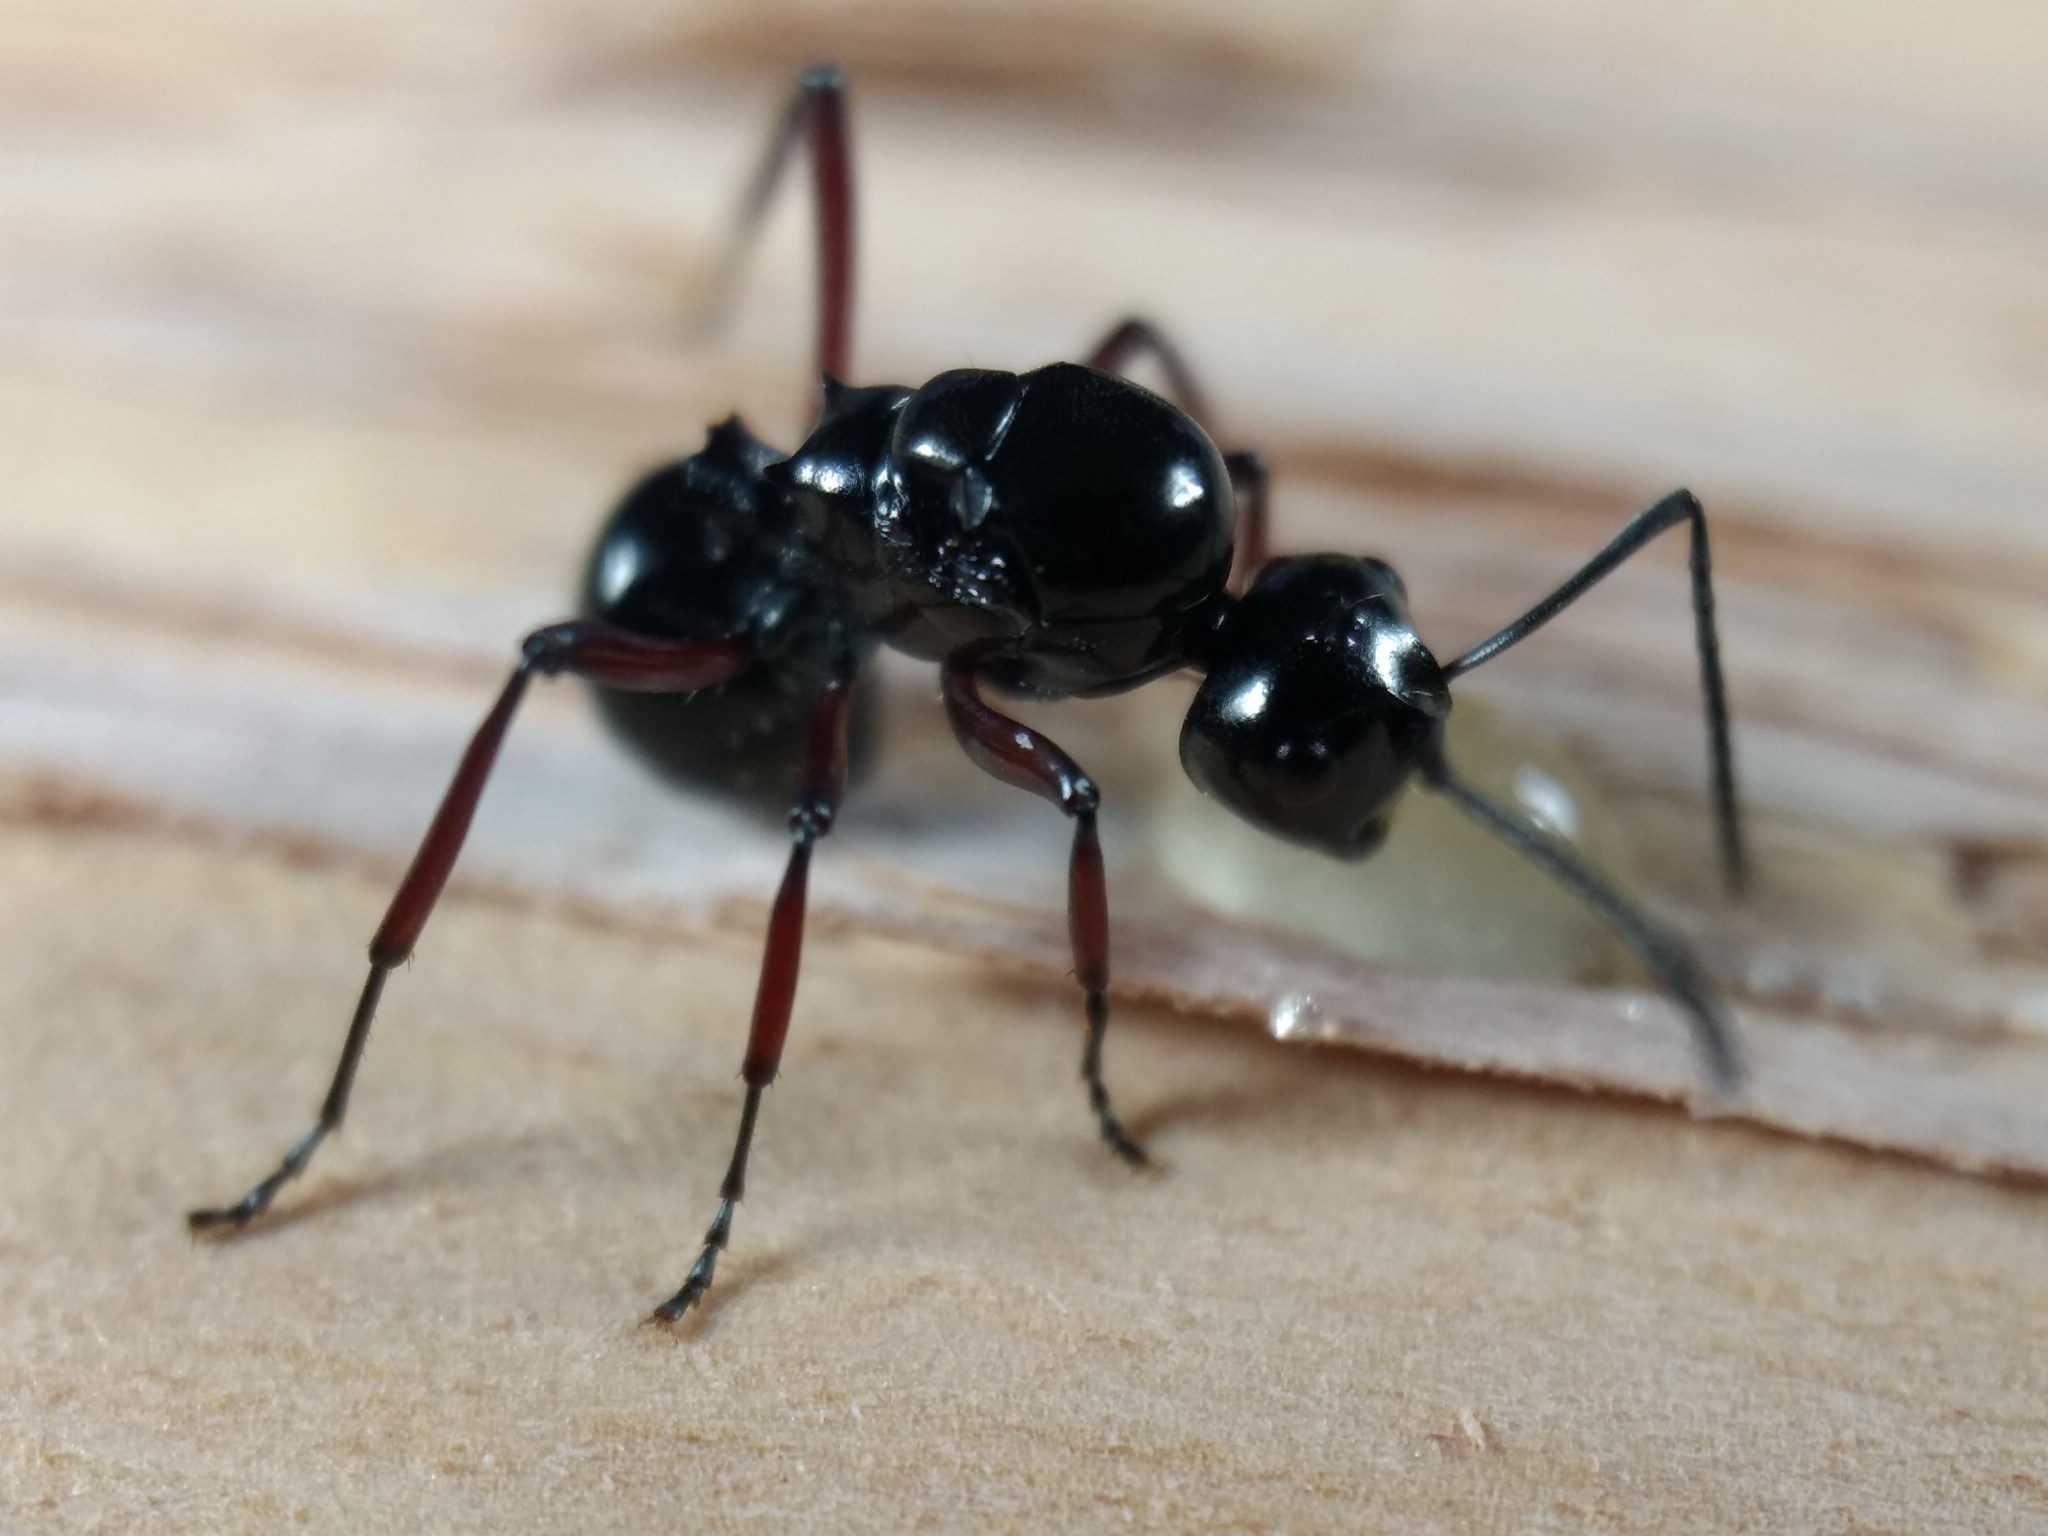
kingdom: Animalia
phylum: Arthropoda
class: Insecta
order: Hymenoptera
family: Formicidae
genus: Polyrhachis
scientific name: Polyrhachis australis
